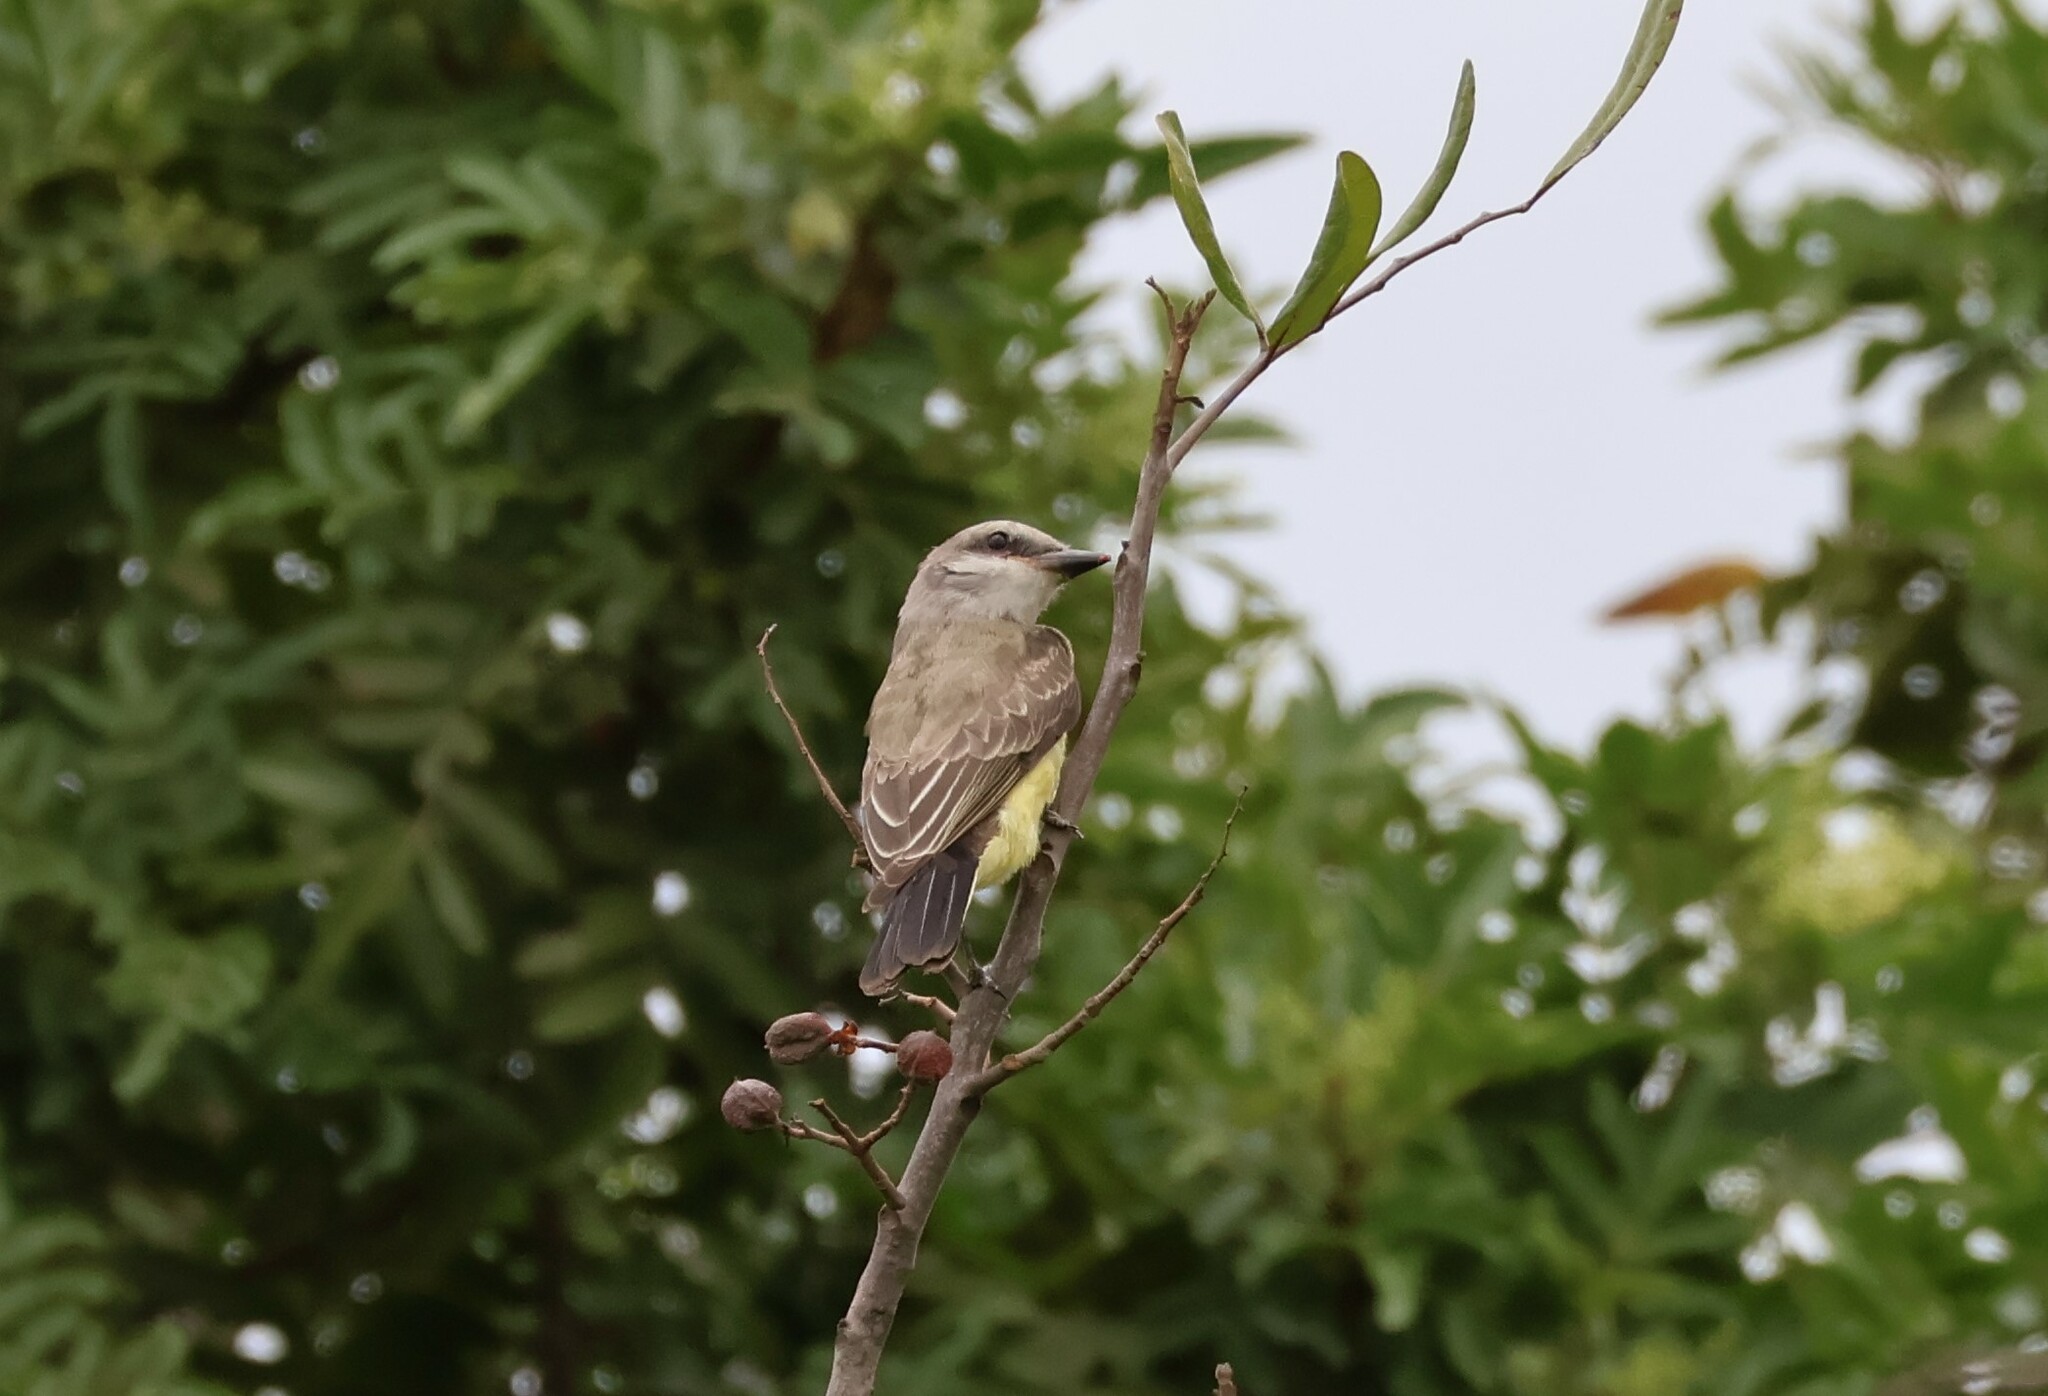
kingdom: Animalia
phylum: Chordata
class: Aves
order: Passeriformes
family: Tyrannidae
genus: Tyrannus
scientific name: Tyrannus verticalis
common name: Western kingbird
